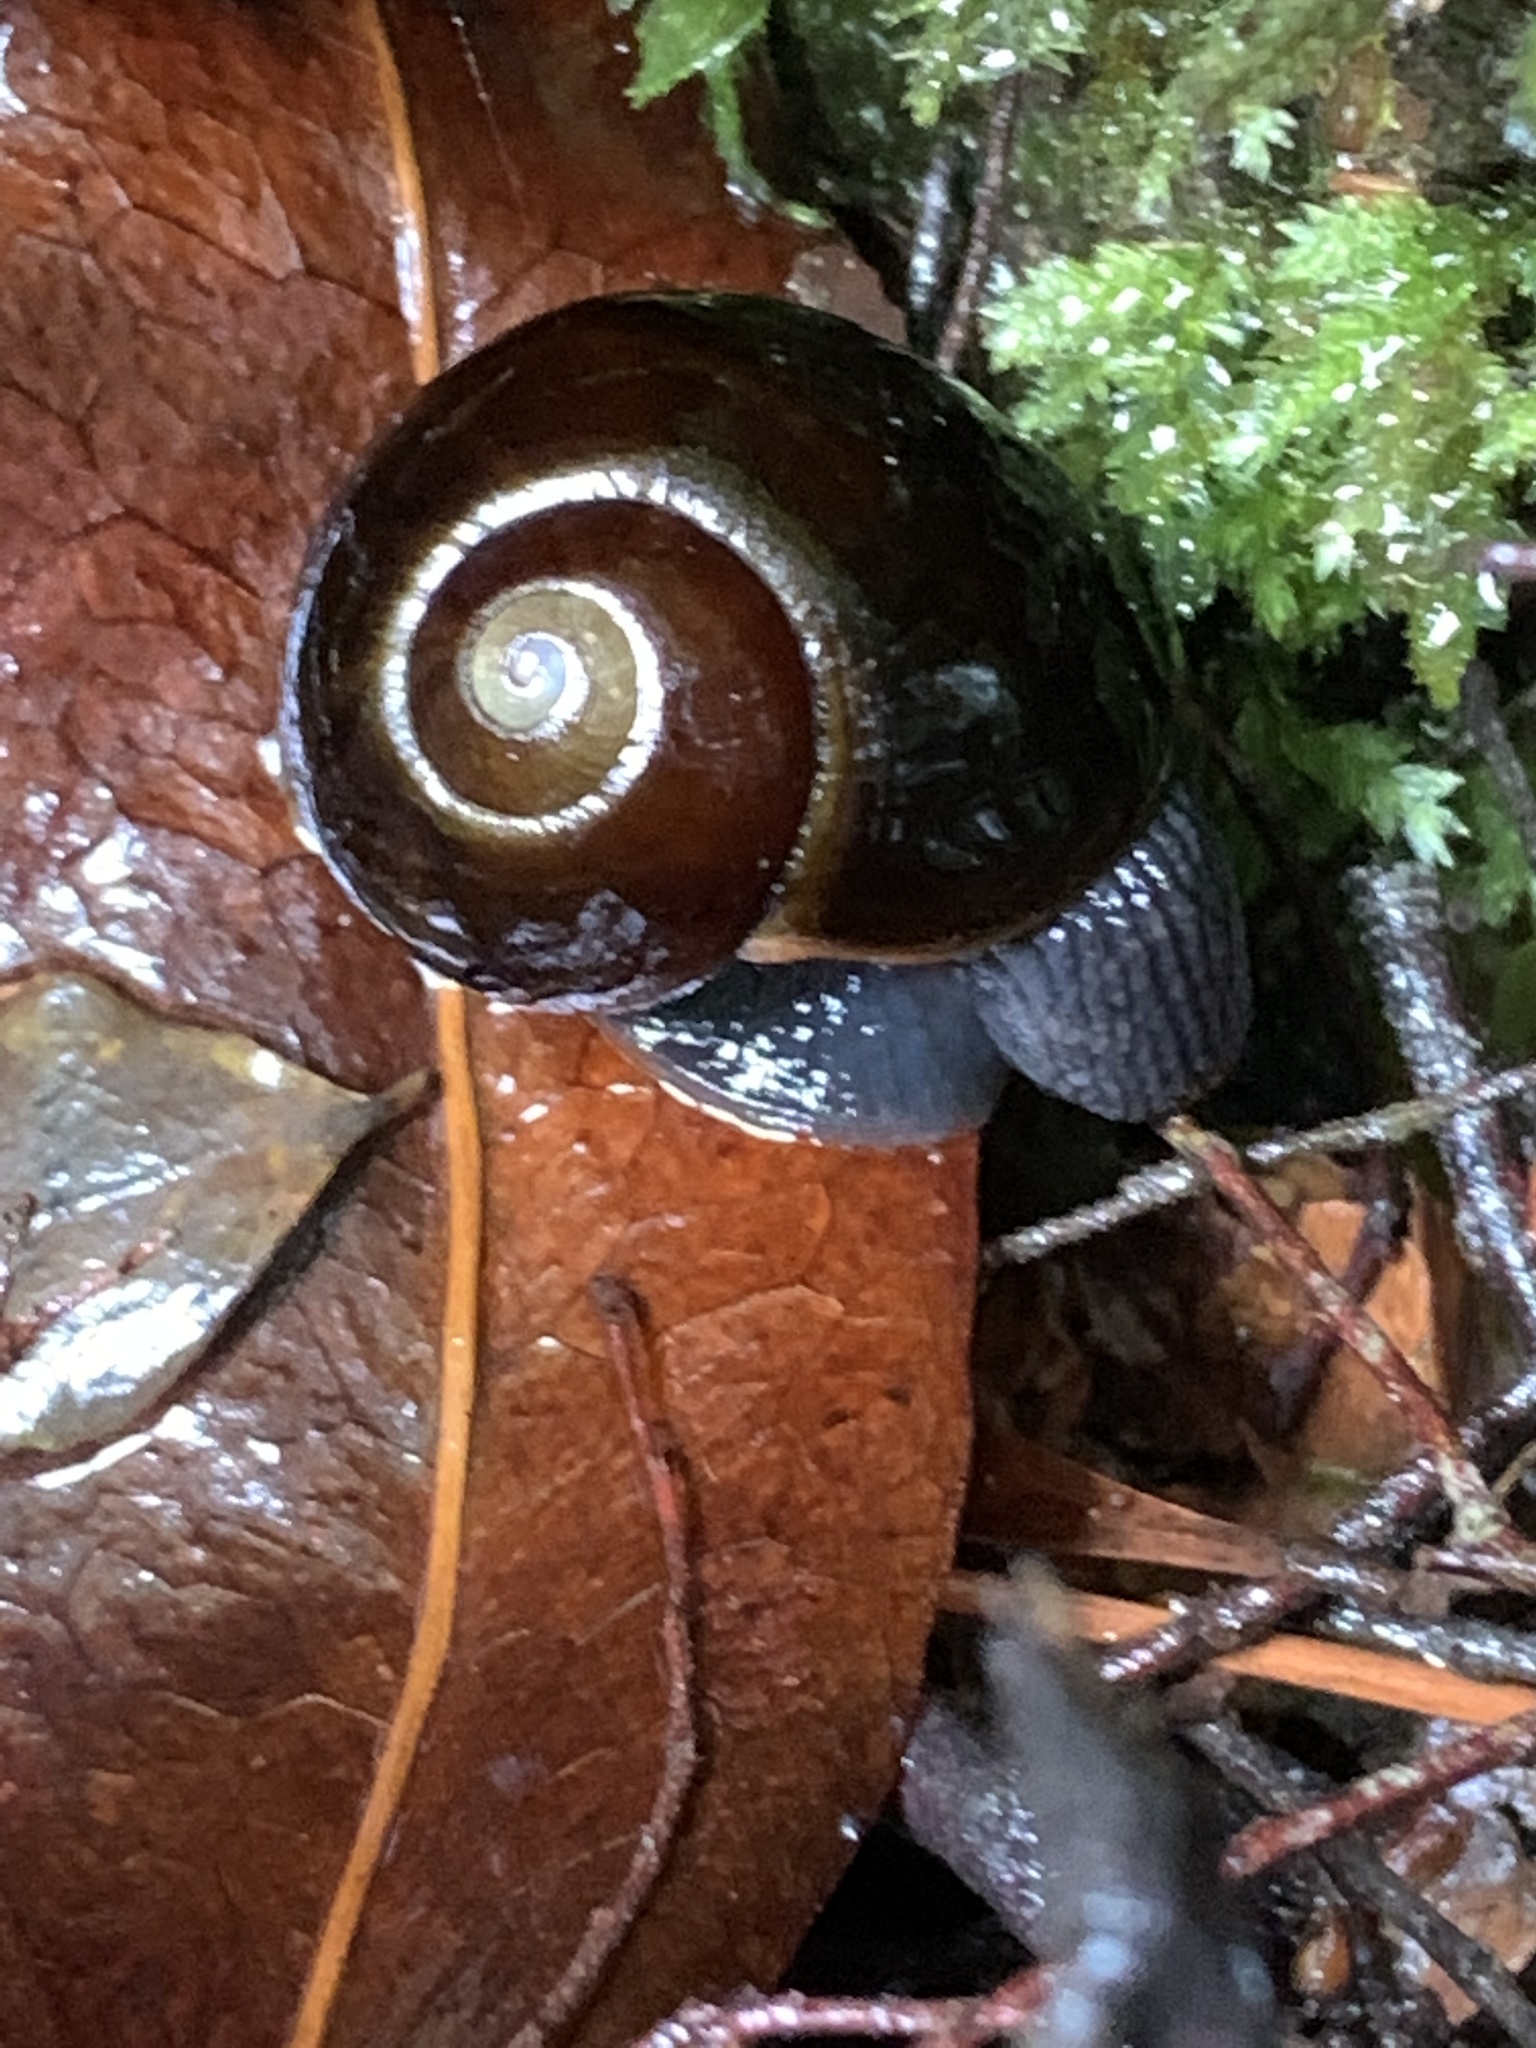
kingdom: Animalia
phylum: Mollusca
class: Gastropoda
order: Stylommatophora
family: Rhytididae
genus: Victaphanta
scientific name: Victaphanta compacta
